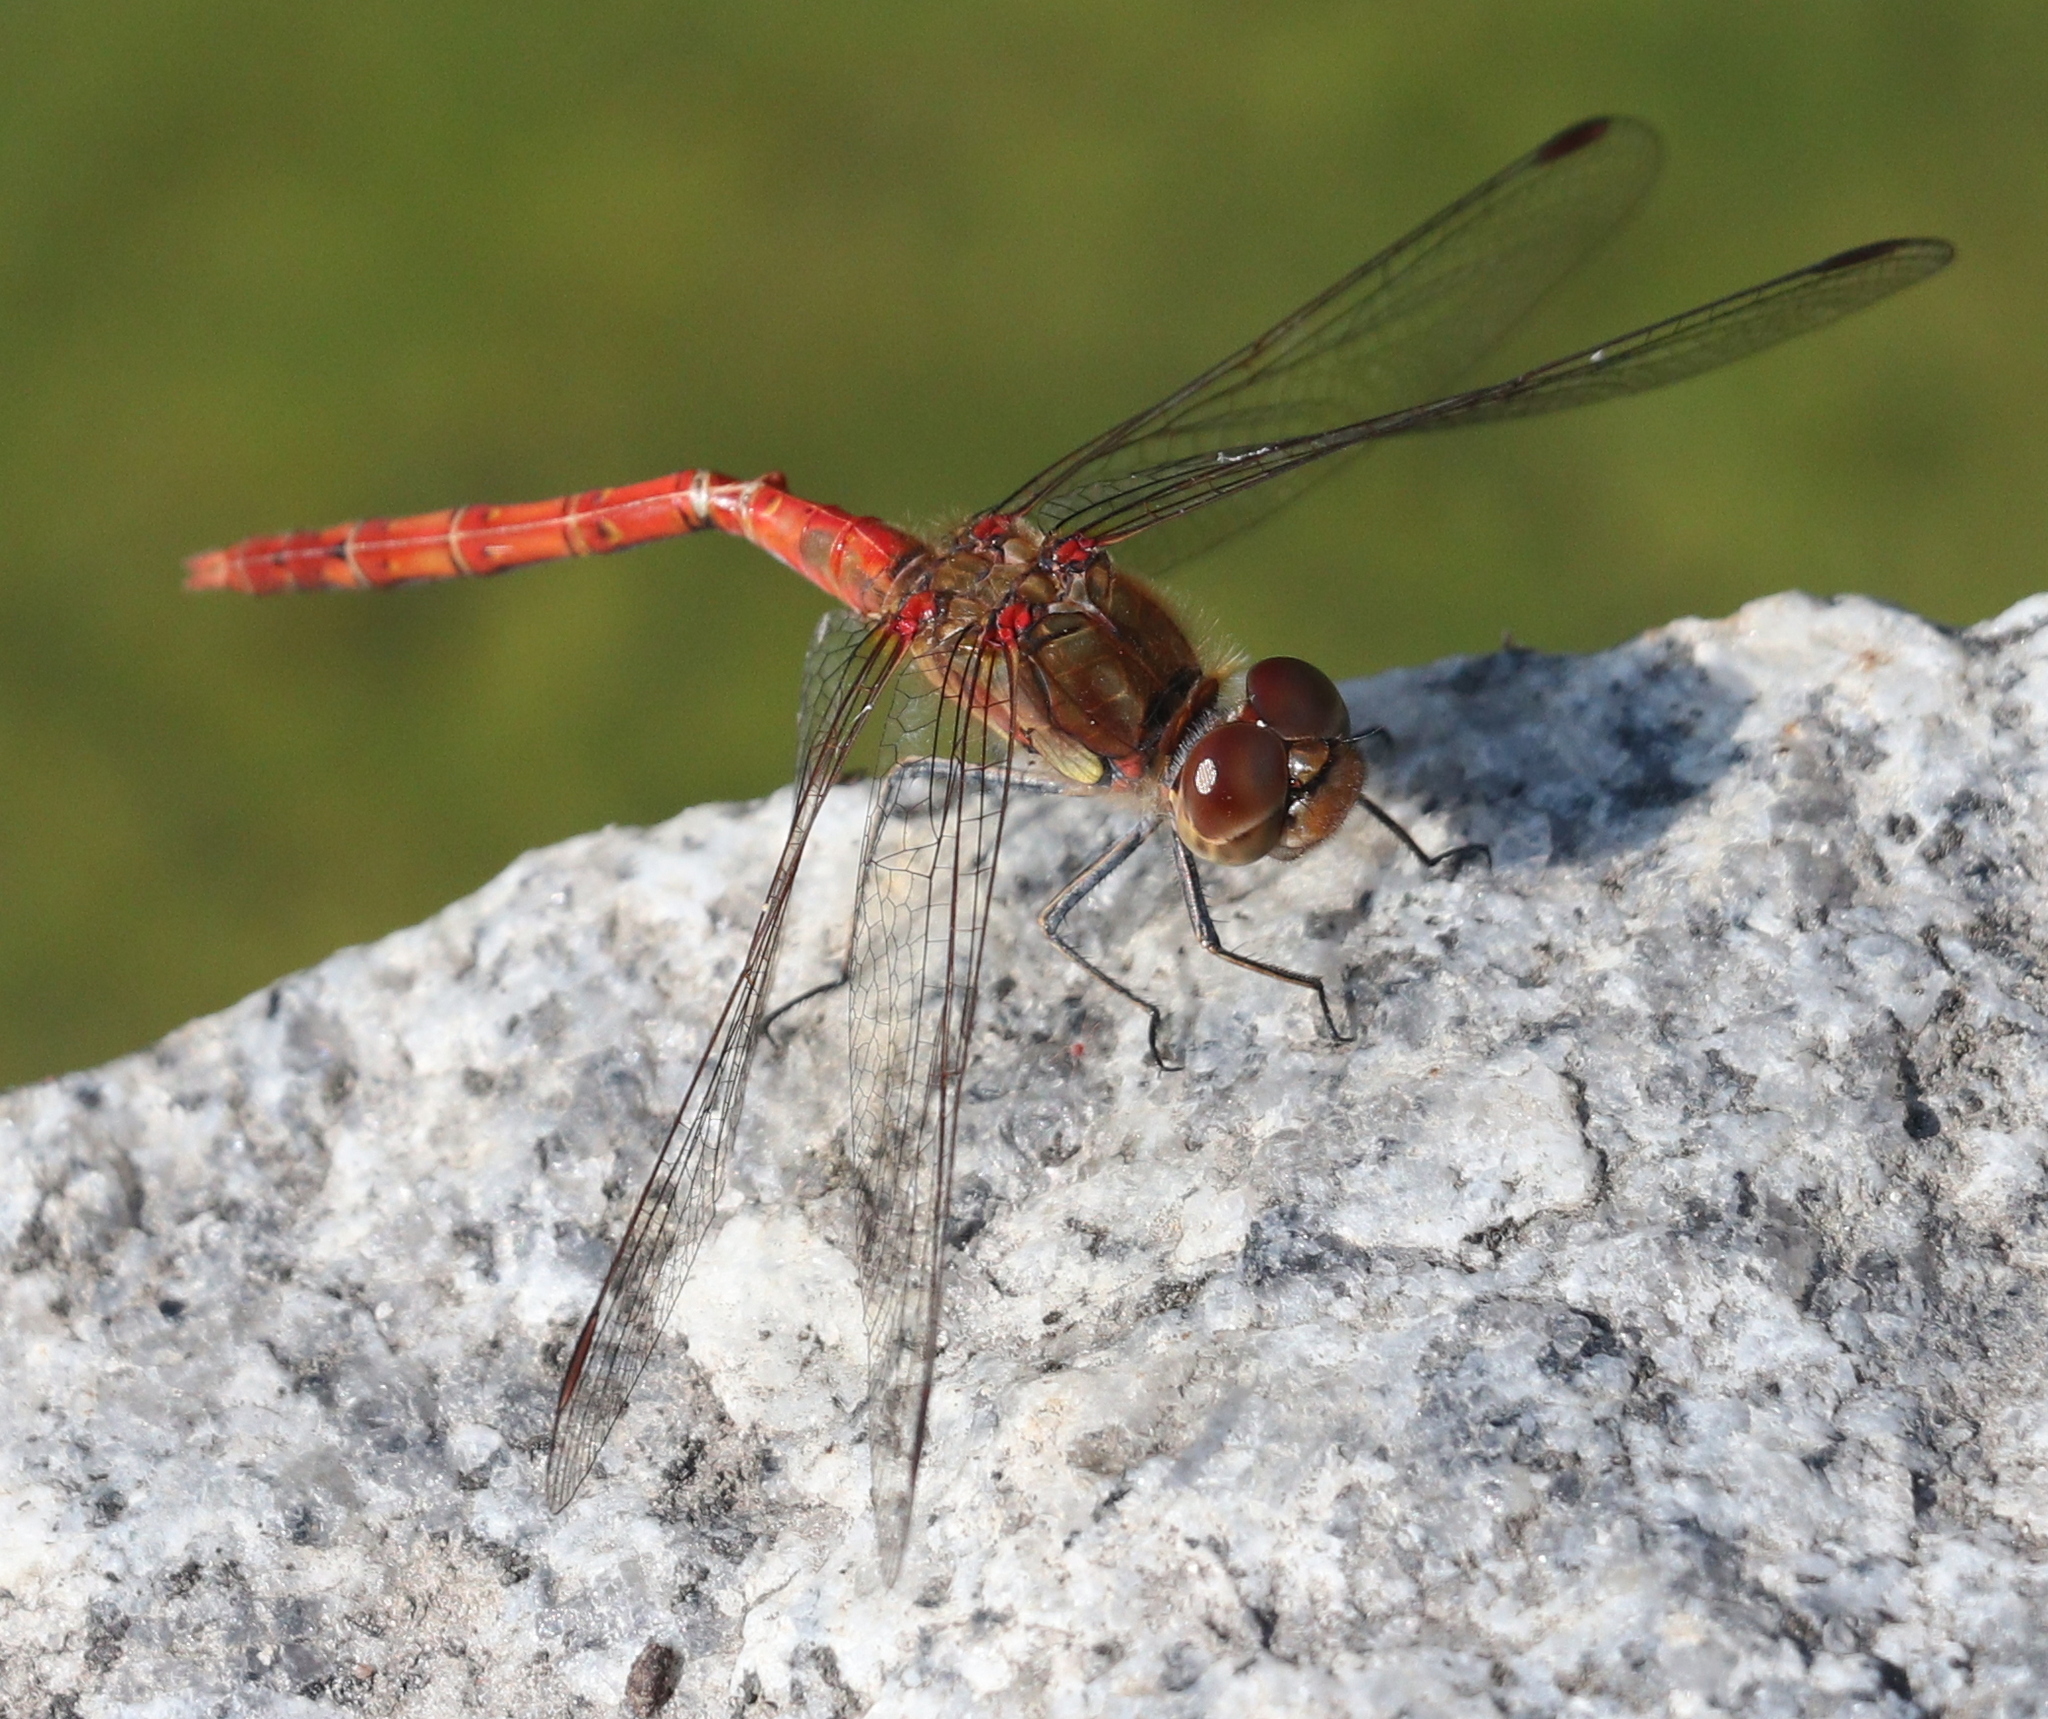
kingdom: Animalia
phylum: Arthropoda
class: Insecta
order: Odonata
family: Libellulidae
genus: Sympetrum
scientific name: Sympetrum striolatum
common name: Common darter
